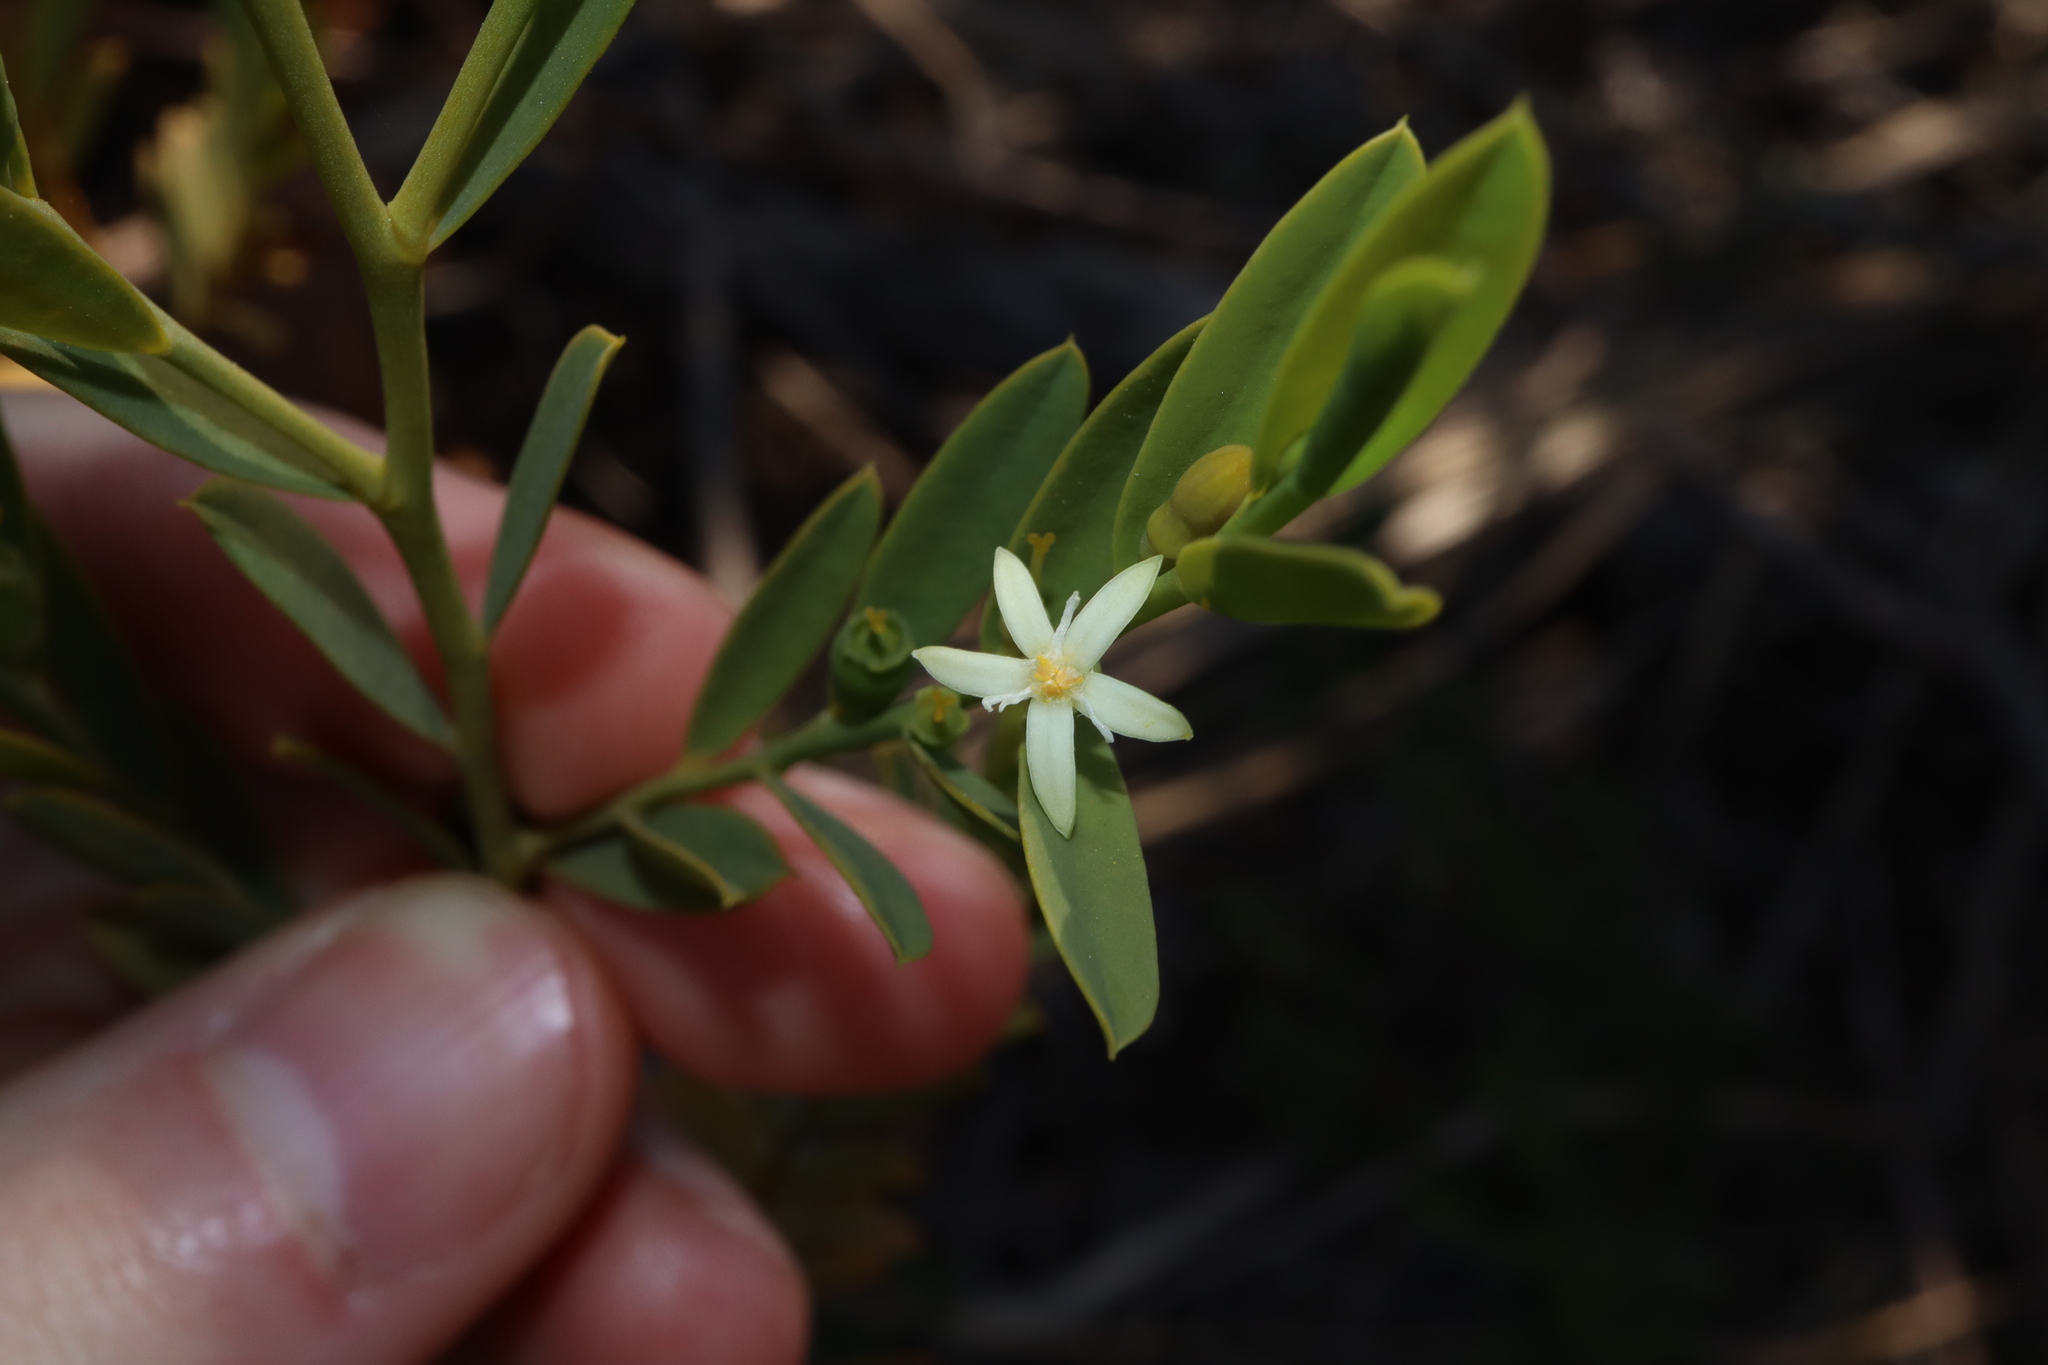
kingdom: Plantae
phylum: Tracheophyta
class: Magnoliopsida
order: Santalales
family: Olacaceae
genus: Olax
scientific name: Olax stricta
